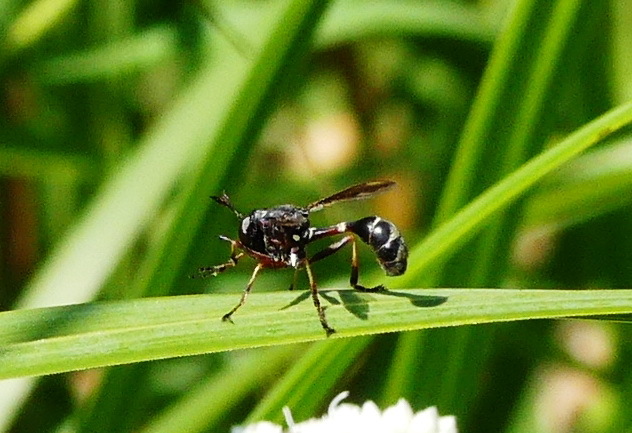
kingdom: Animalia
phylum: Arthropoda
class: Insecta
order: Diptera
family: Conopidae
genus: Physocephala
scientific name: Physocephala furcillata
